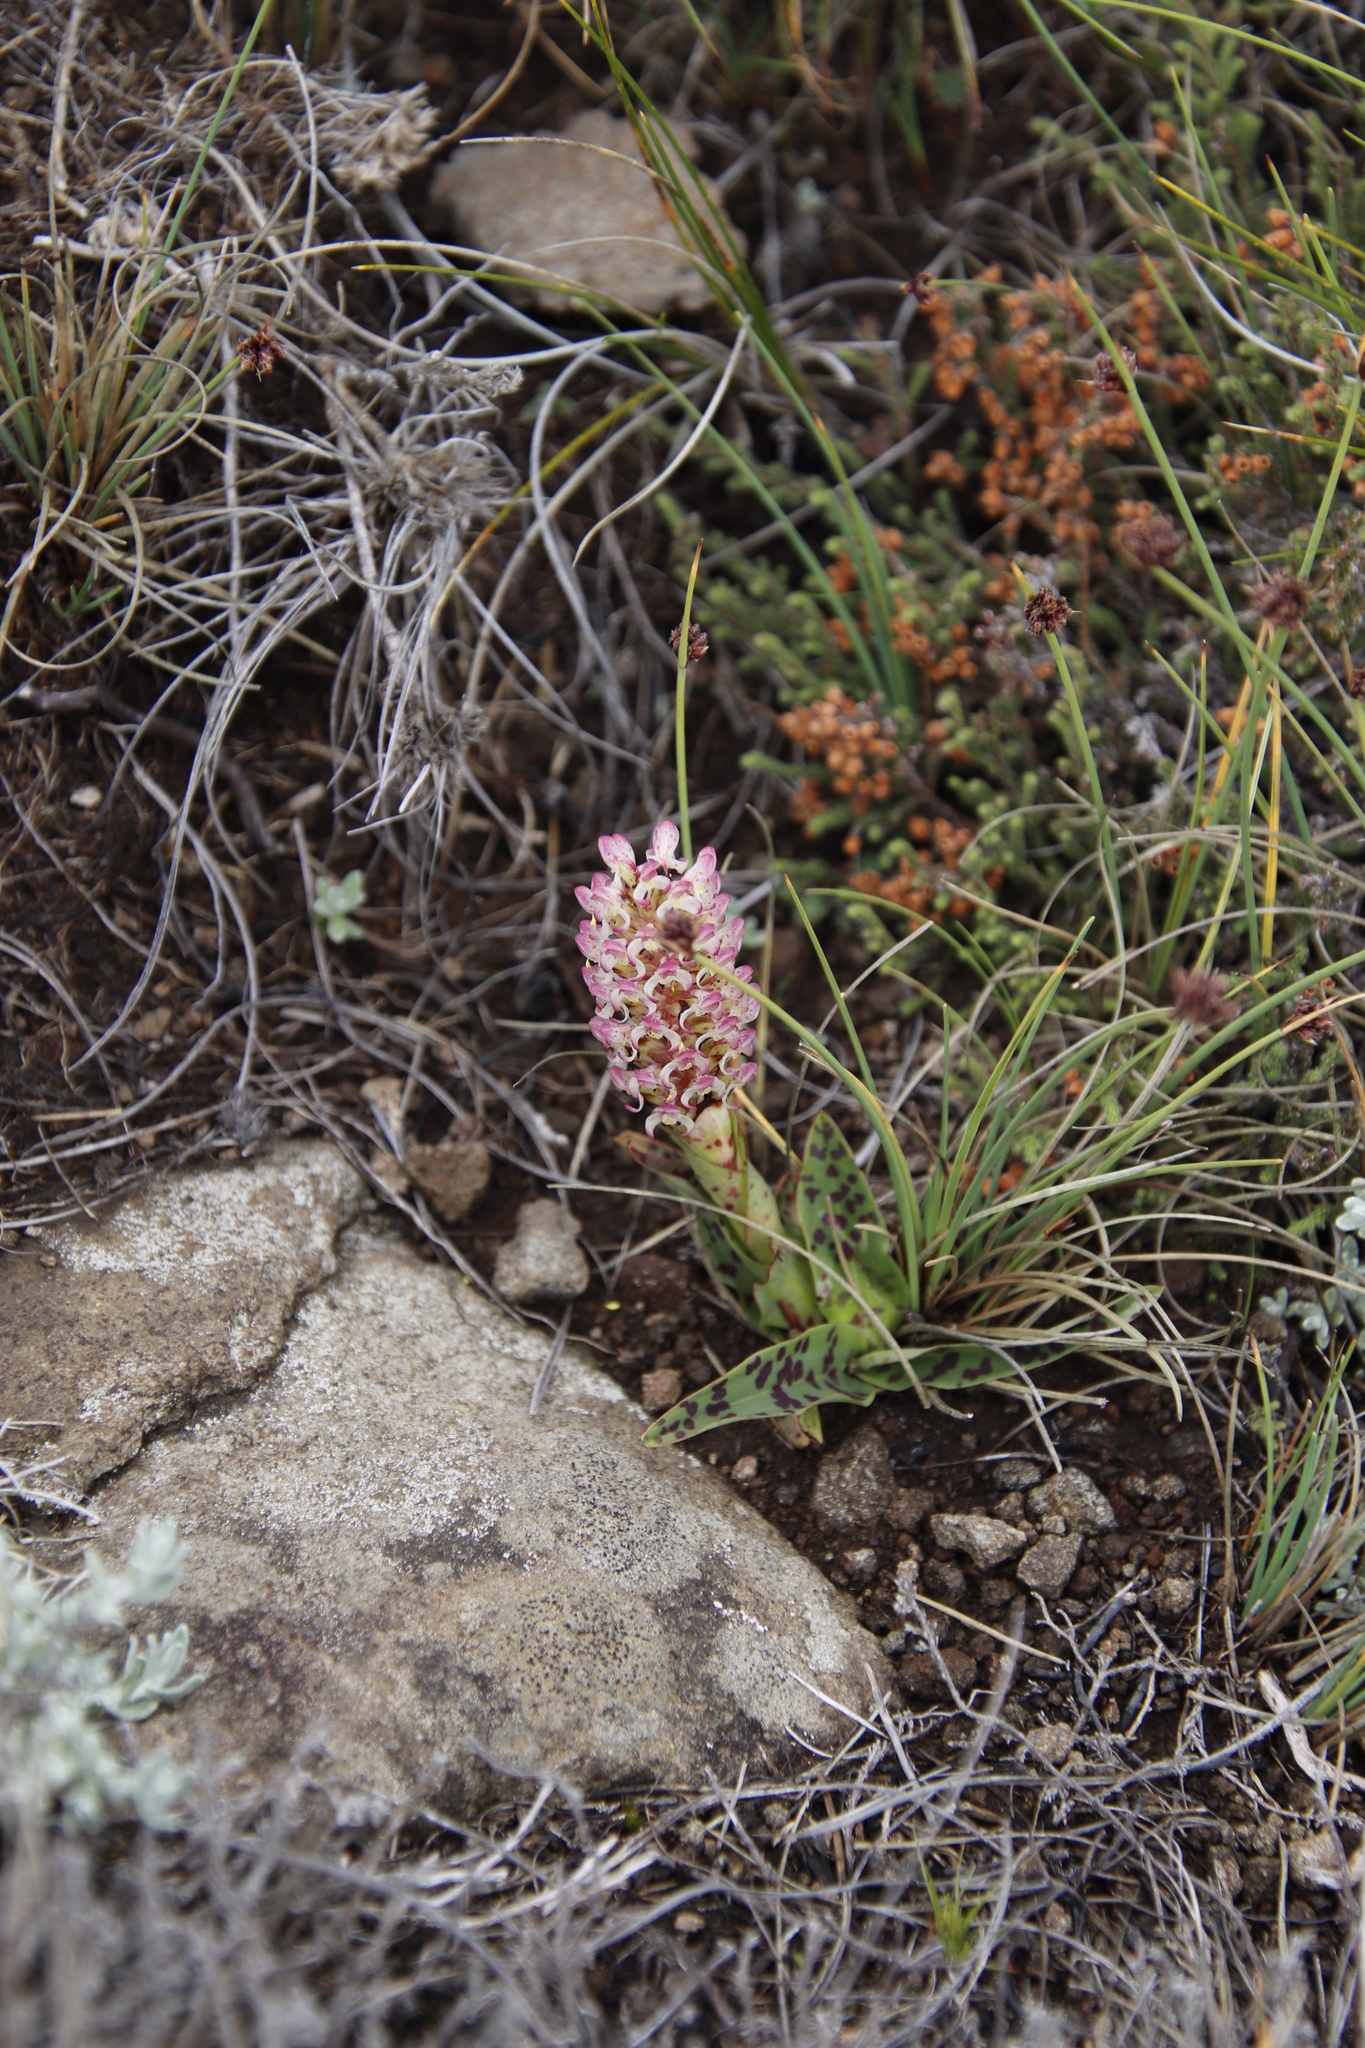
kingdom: Plantae
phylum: Tracheophyta
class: Liliopsida
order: Asparagales
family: Orchidaceae
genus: Disa
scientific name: Disa fragrans
